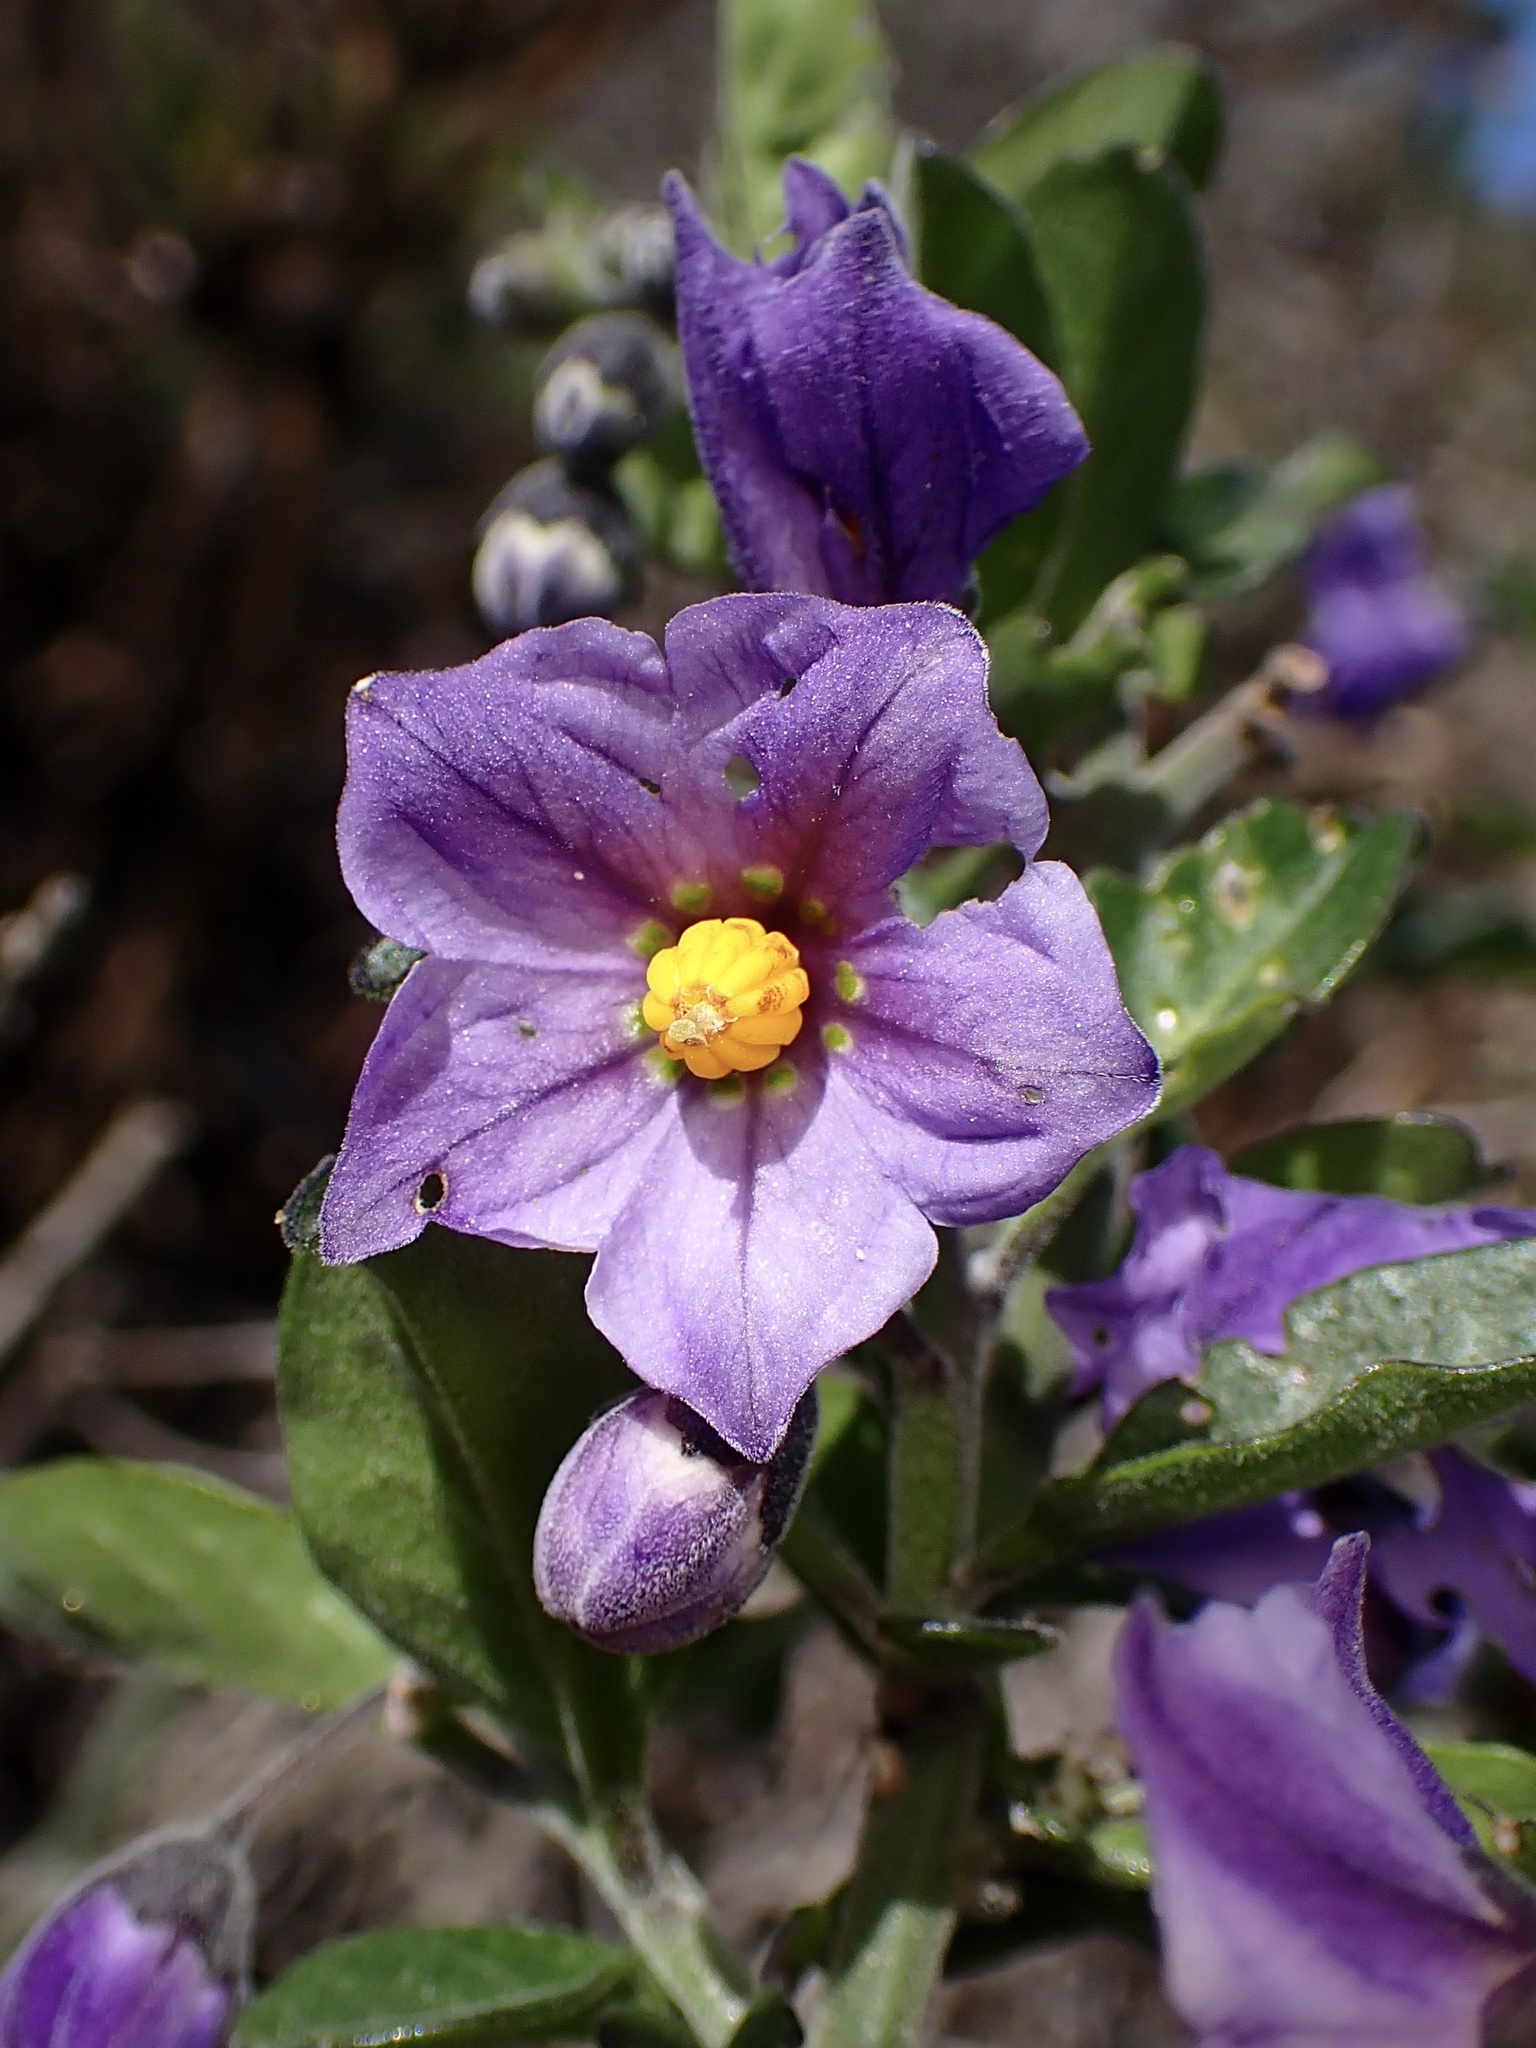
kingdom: Plantae
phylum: Tracheophyta
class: Magnoliopsida
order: Solanales
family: Solanaceae
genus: Solanum
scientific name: Solanum umbelliferum
